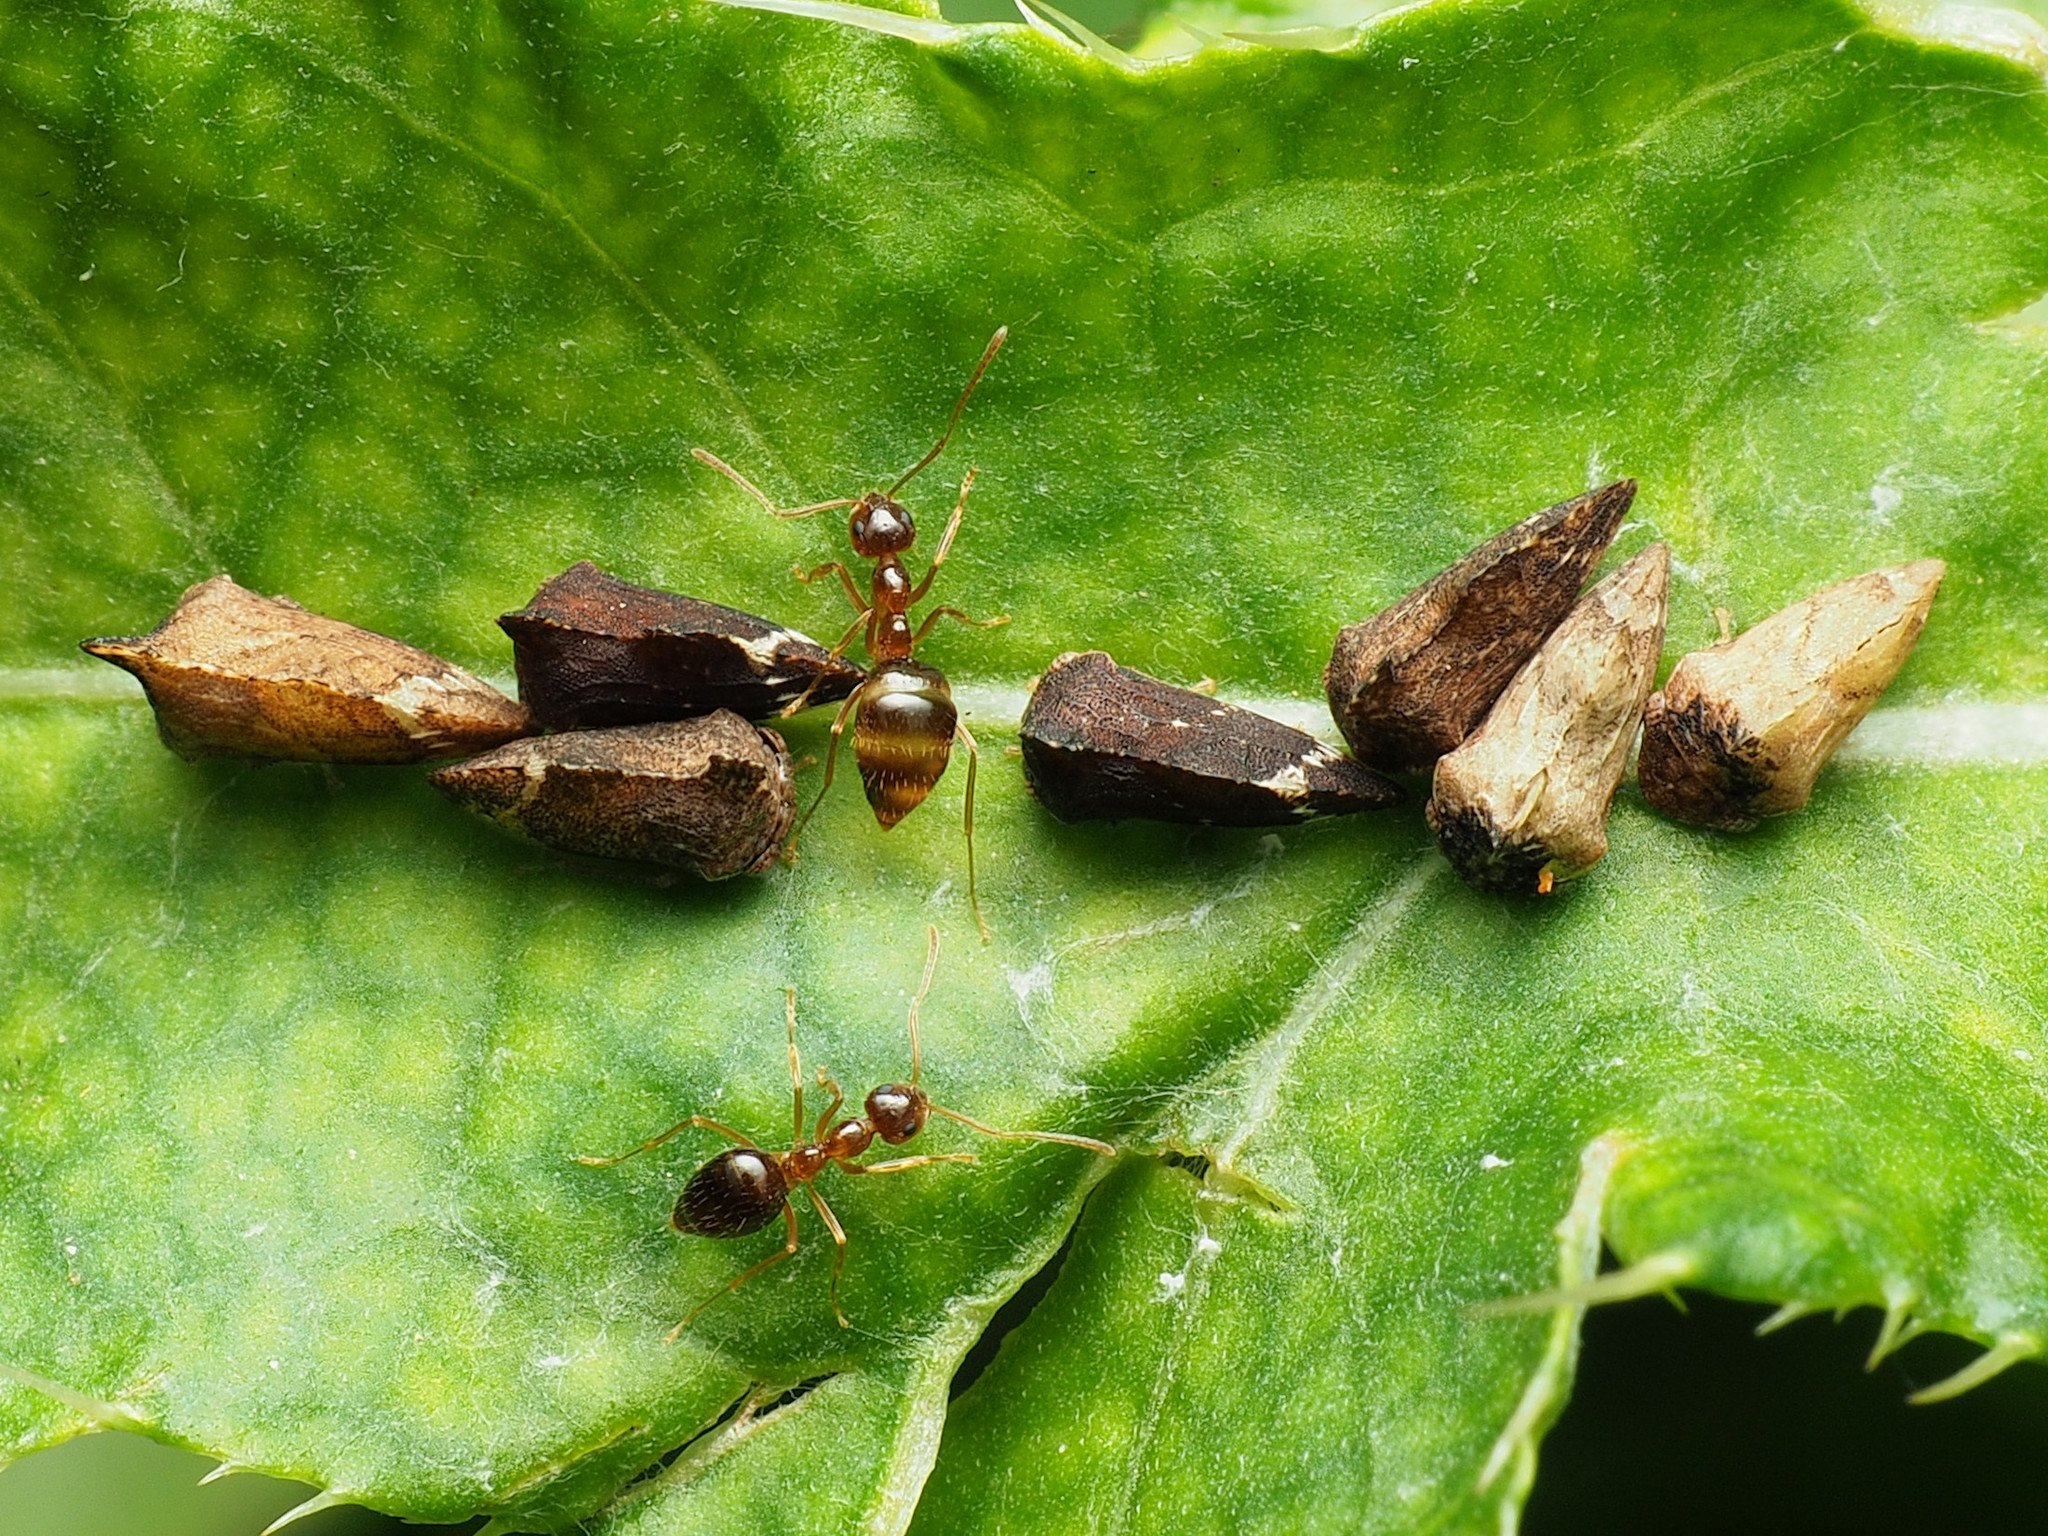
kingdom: Animalia
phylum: Arthropoda
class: Insecta
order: Hymenoptera
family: Formicidae
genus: Prenolepis
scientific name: Prenolepis imparis
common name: Small honey ant
